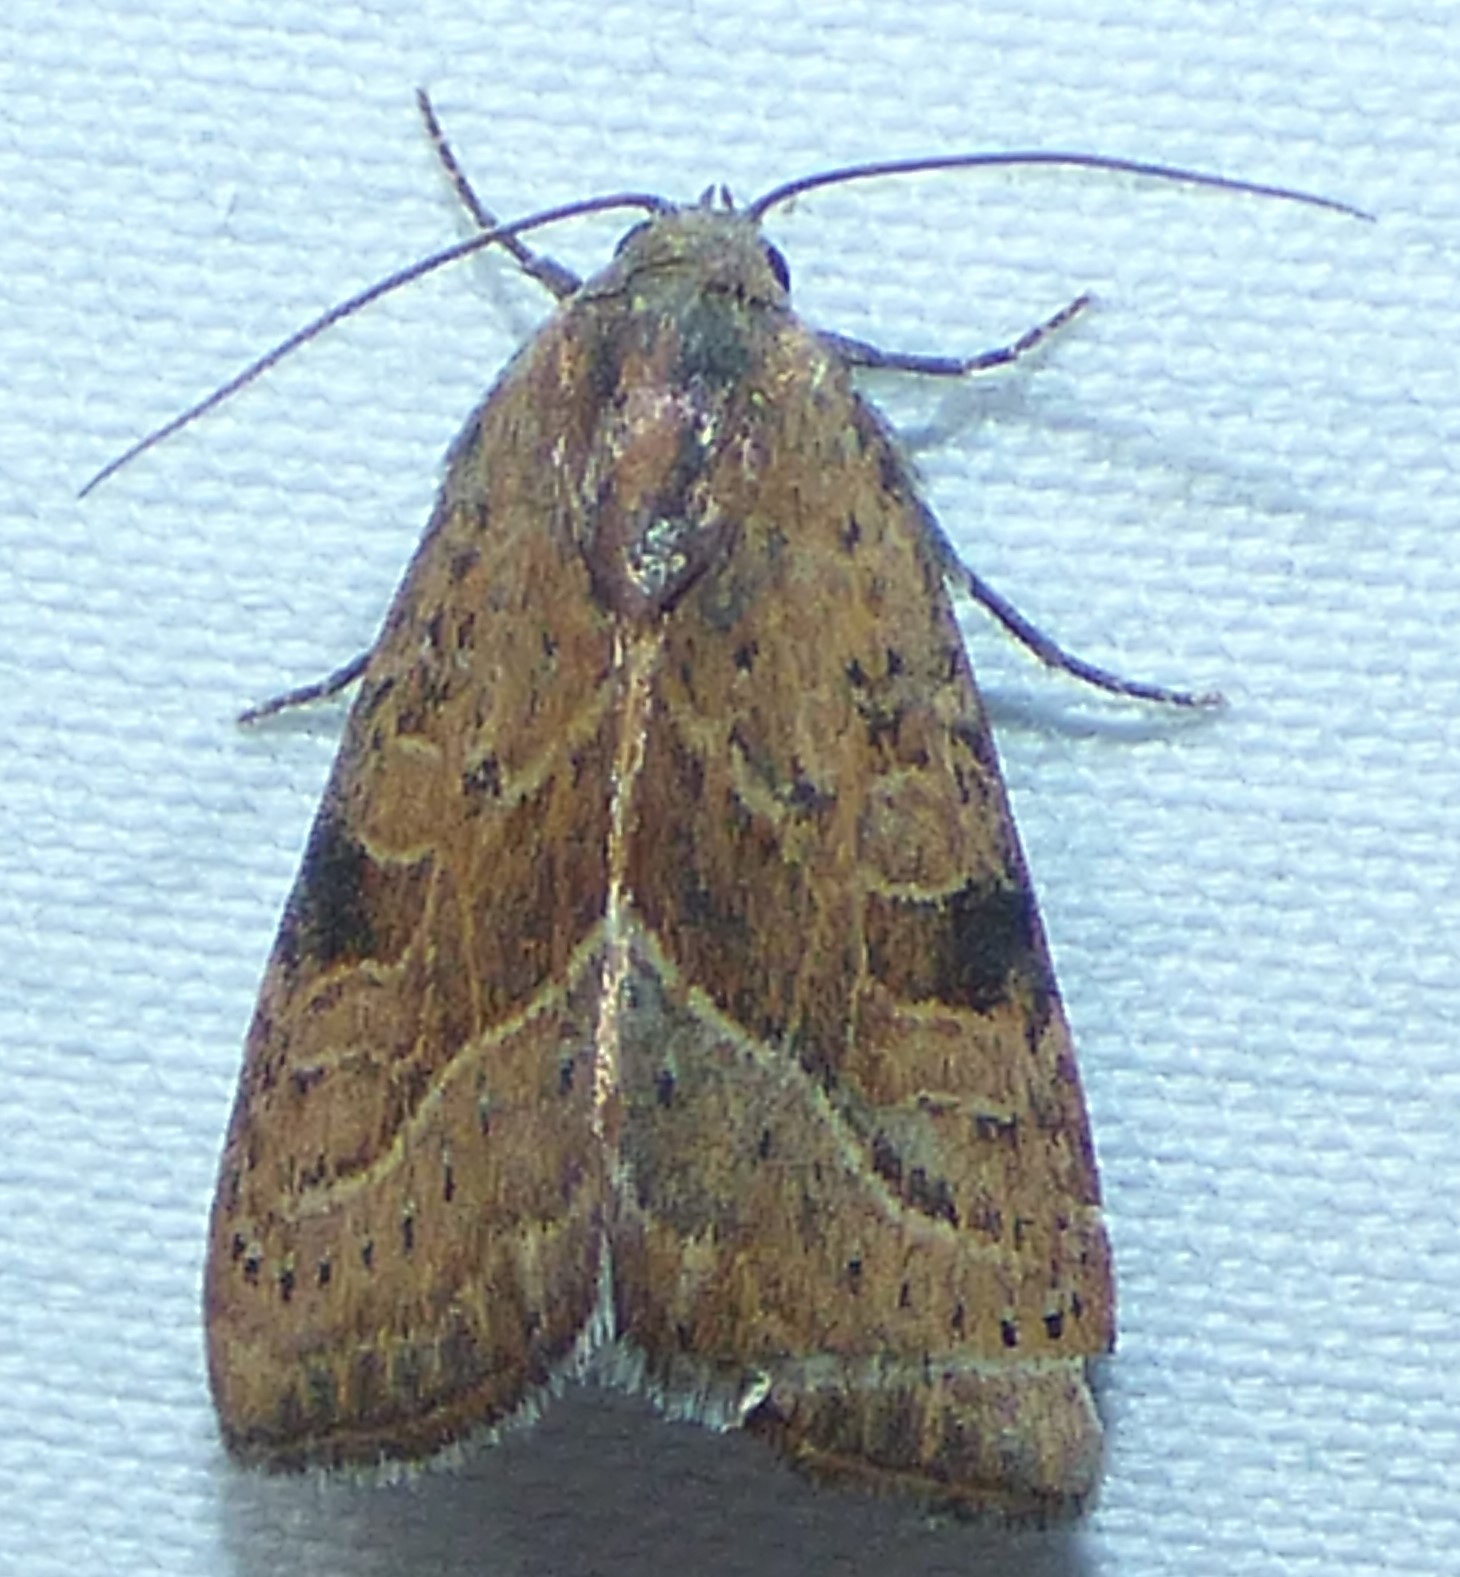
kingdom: Animalia
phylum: Arthropoda
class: Insecta
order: Lepidoptera
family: Noctuidae
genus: Galgula
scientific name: Galgula partita
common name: Wedgeling
